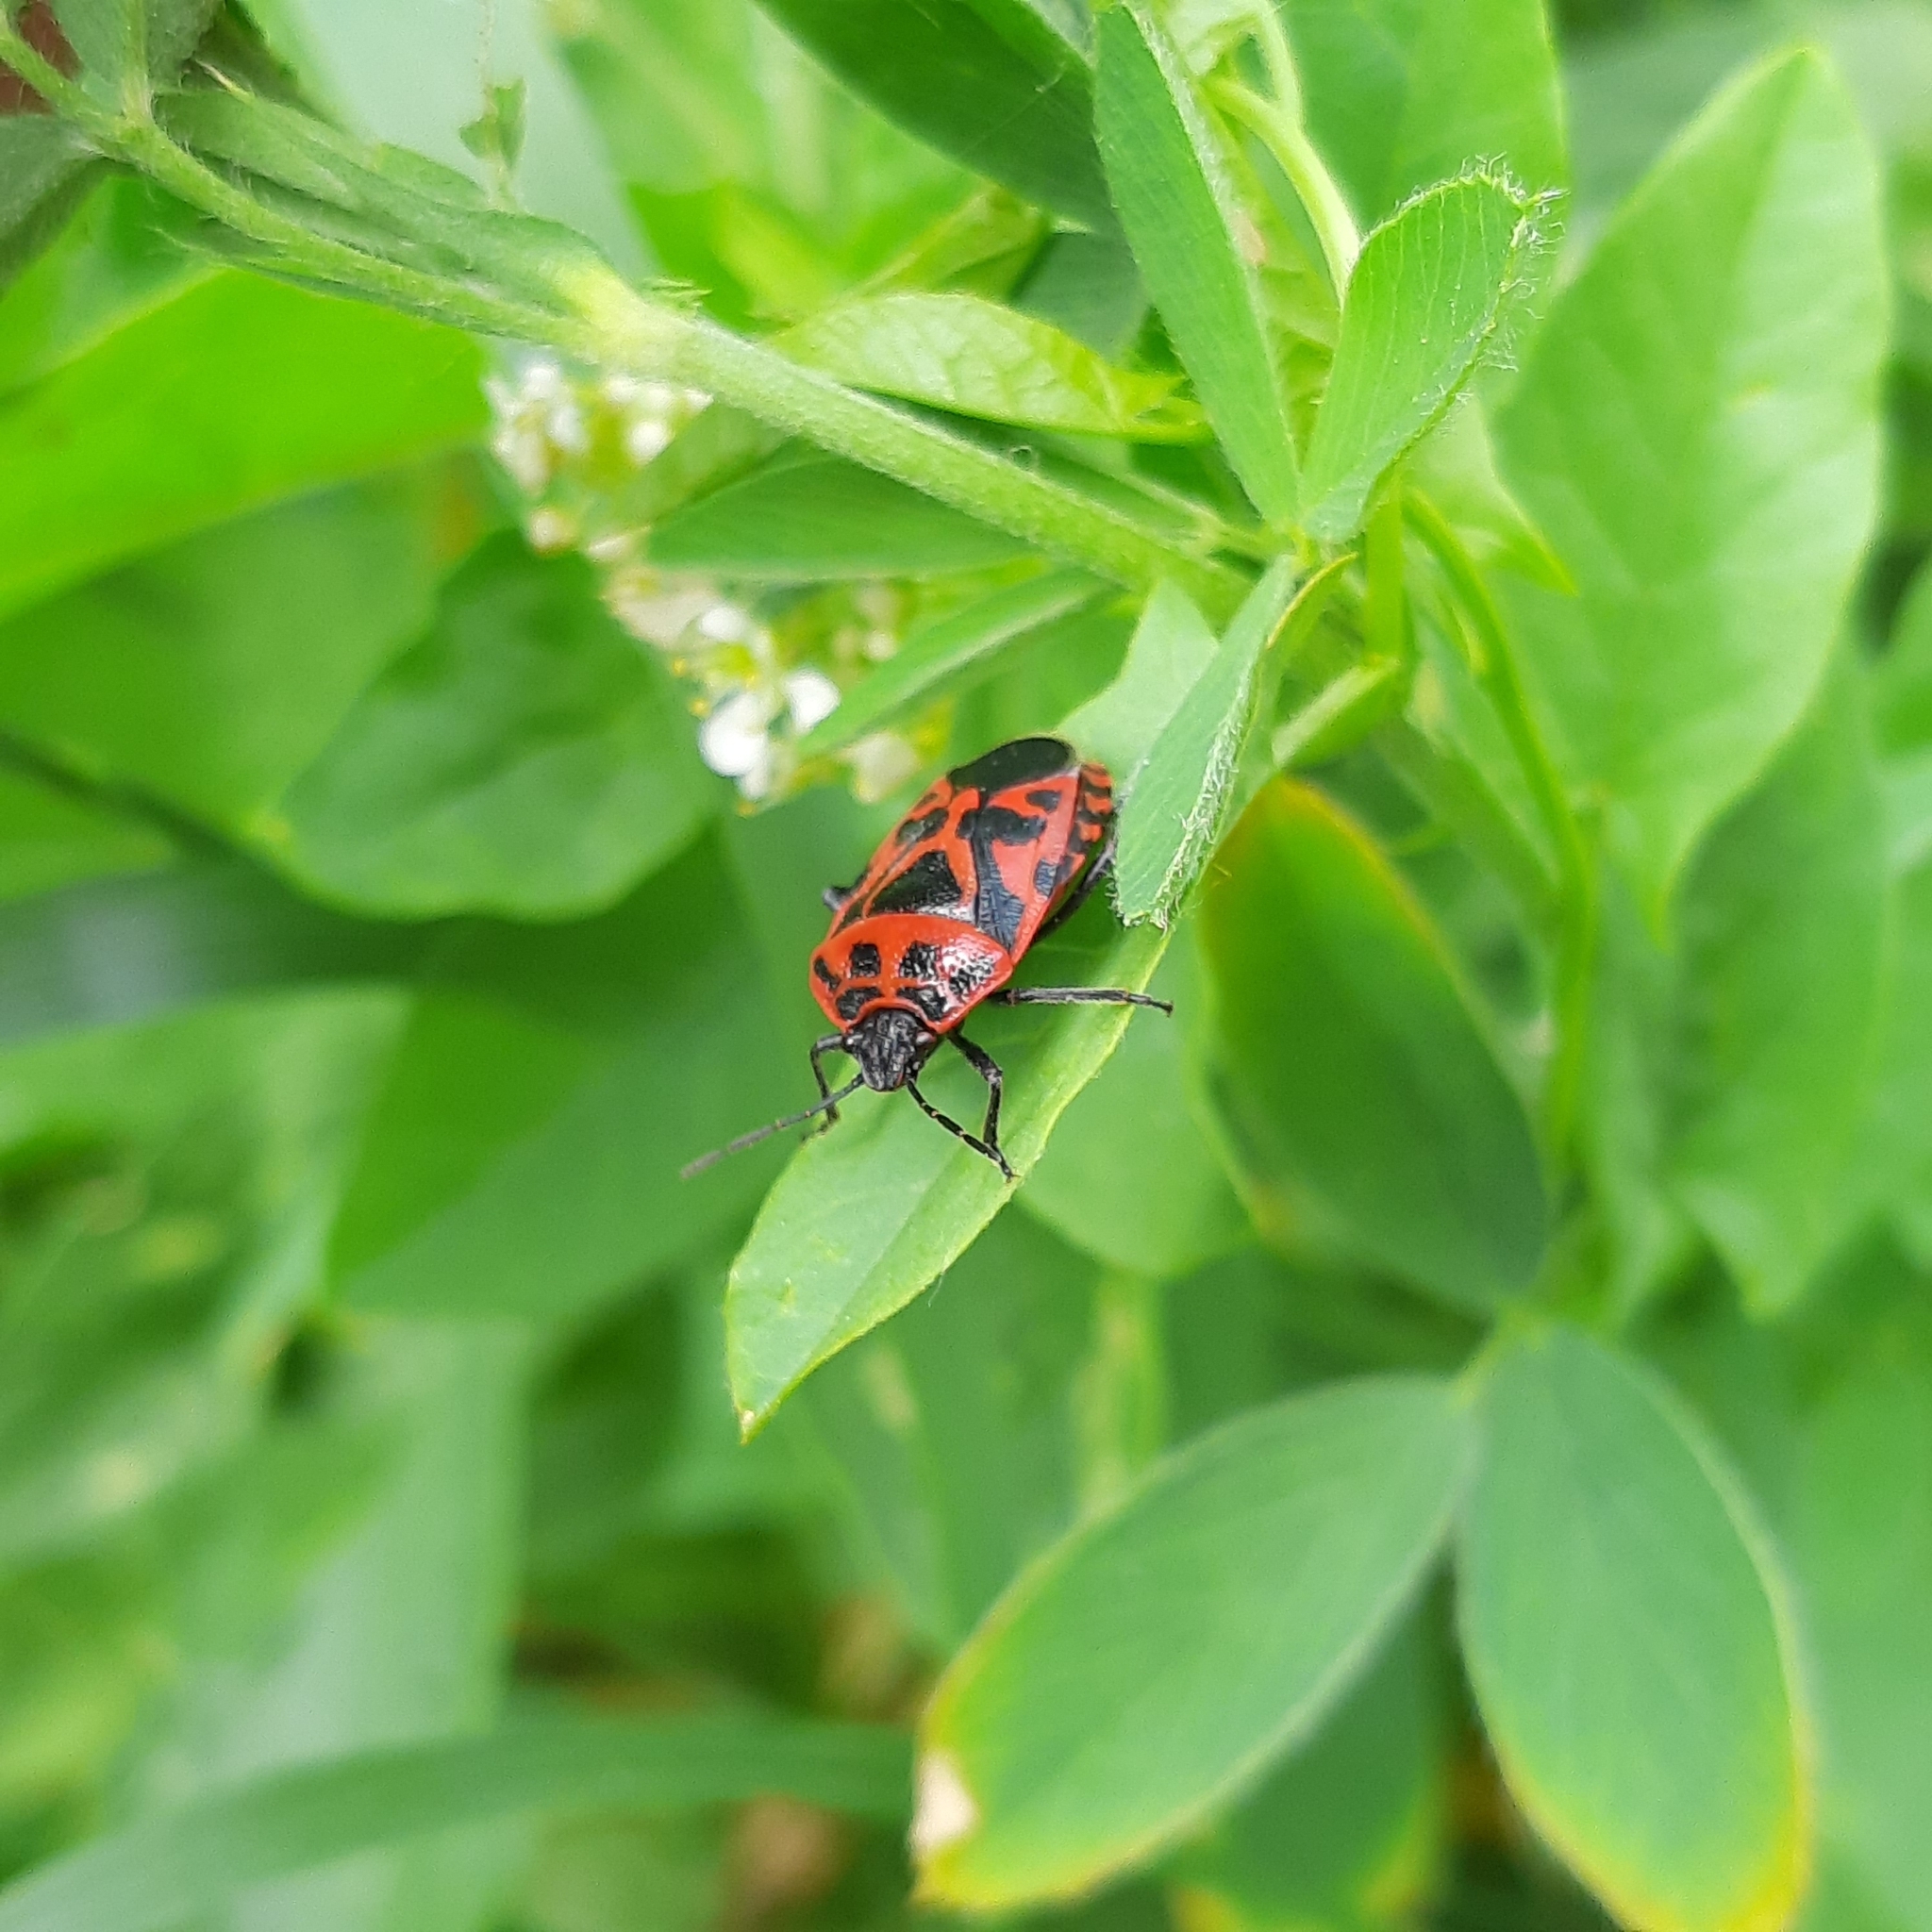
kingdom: Animalia
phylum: Arthropoda
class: Insecta
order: Hemiptera
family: Pentatomidae
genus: Eurydema
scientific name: Eurydema ventralis
